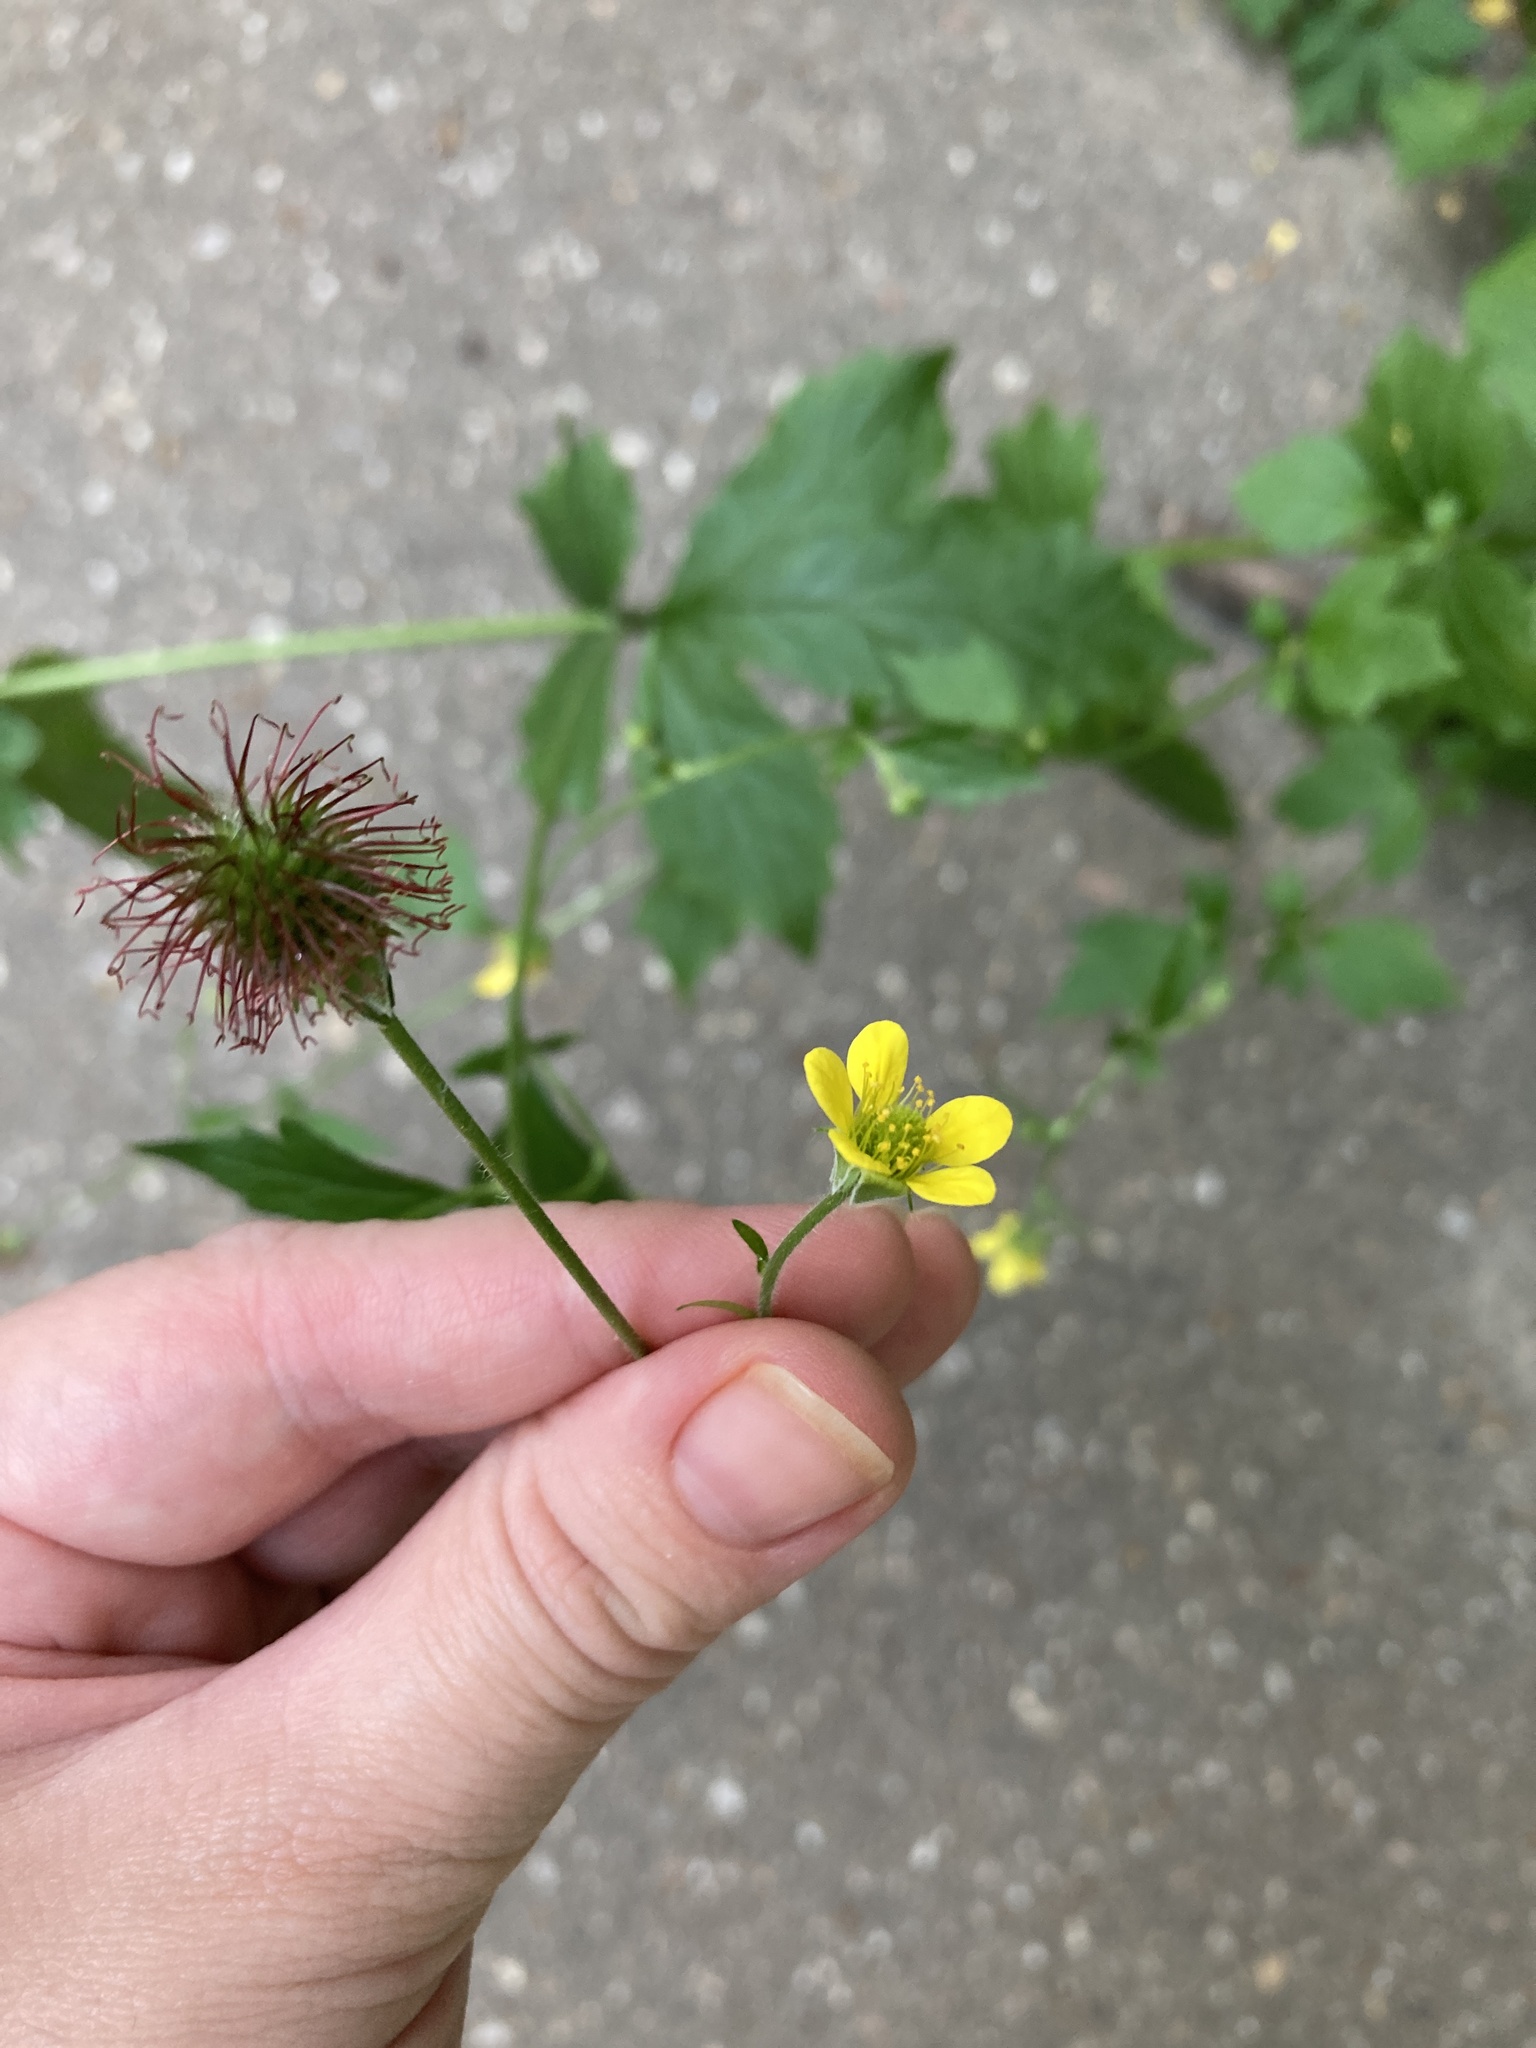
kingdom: Plantae
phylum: Tracheophyta
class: Magnoliopsida
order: Rosales
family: Rosaceae
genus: Geum
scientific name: Geum urbanum
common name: Wood avens
